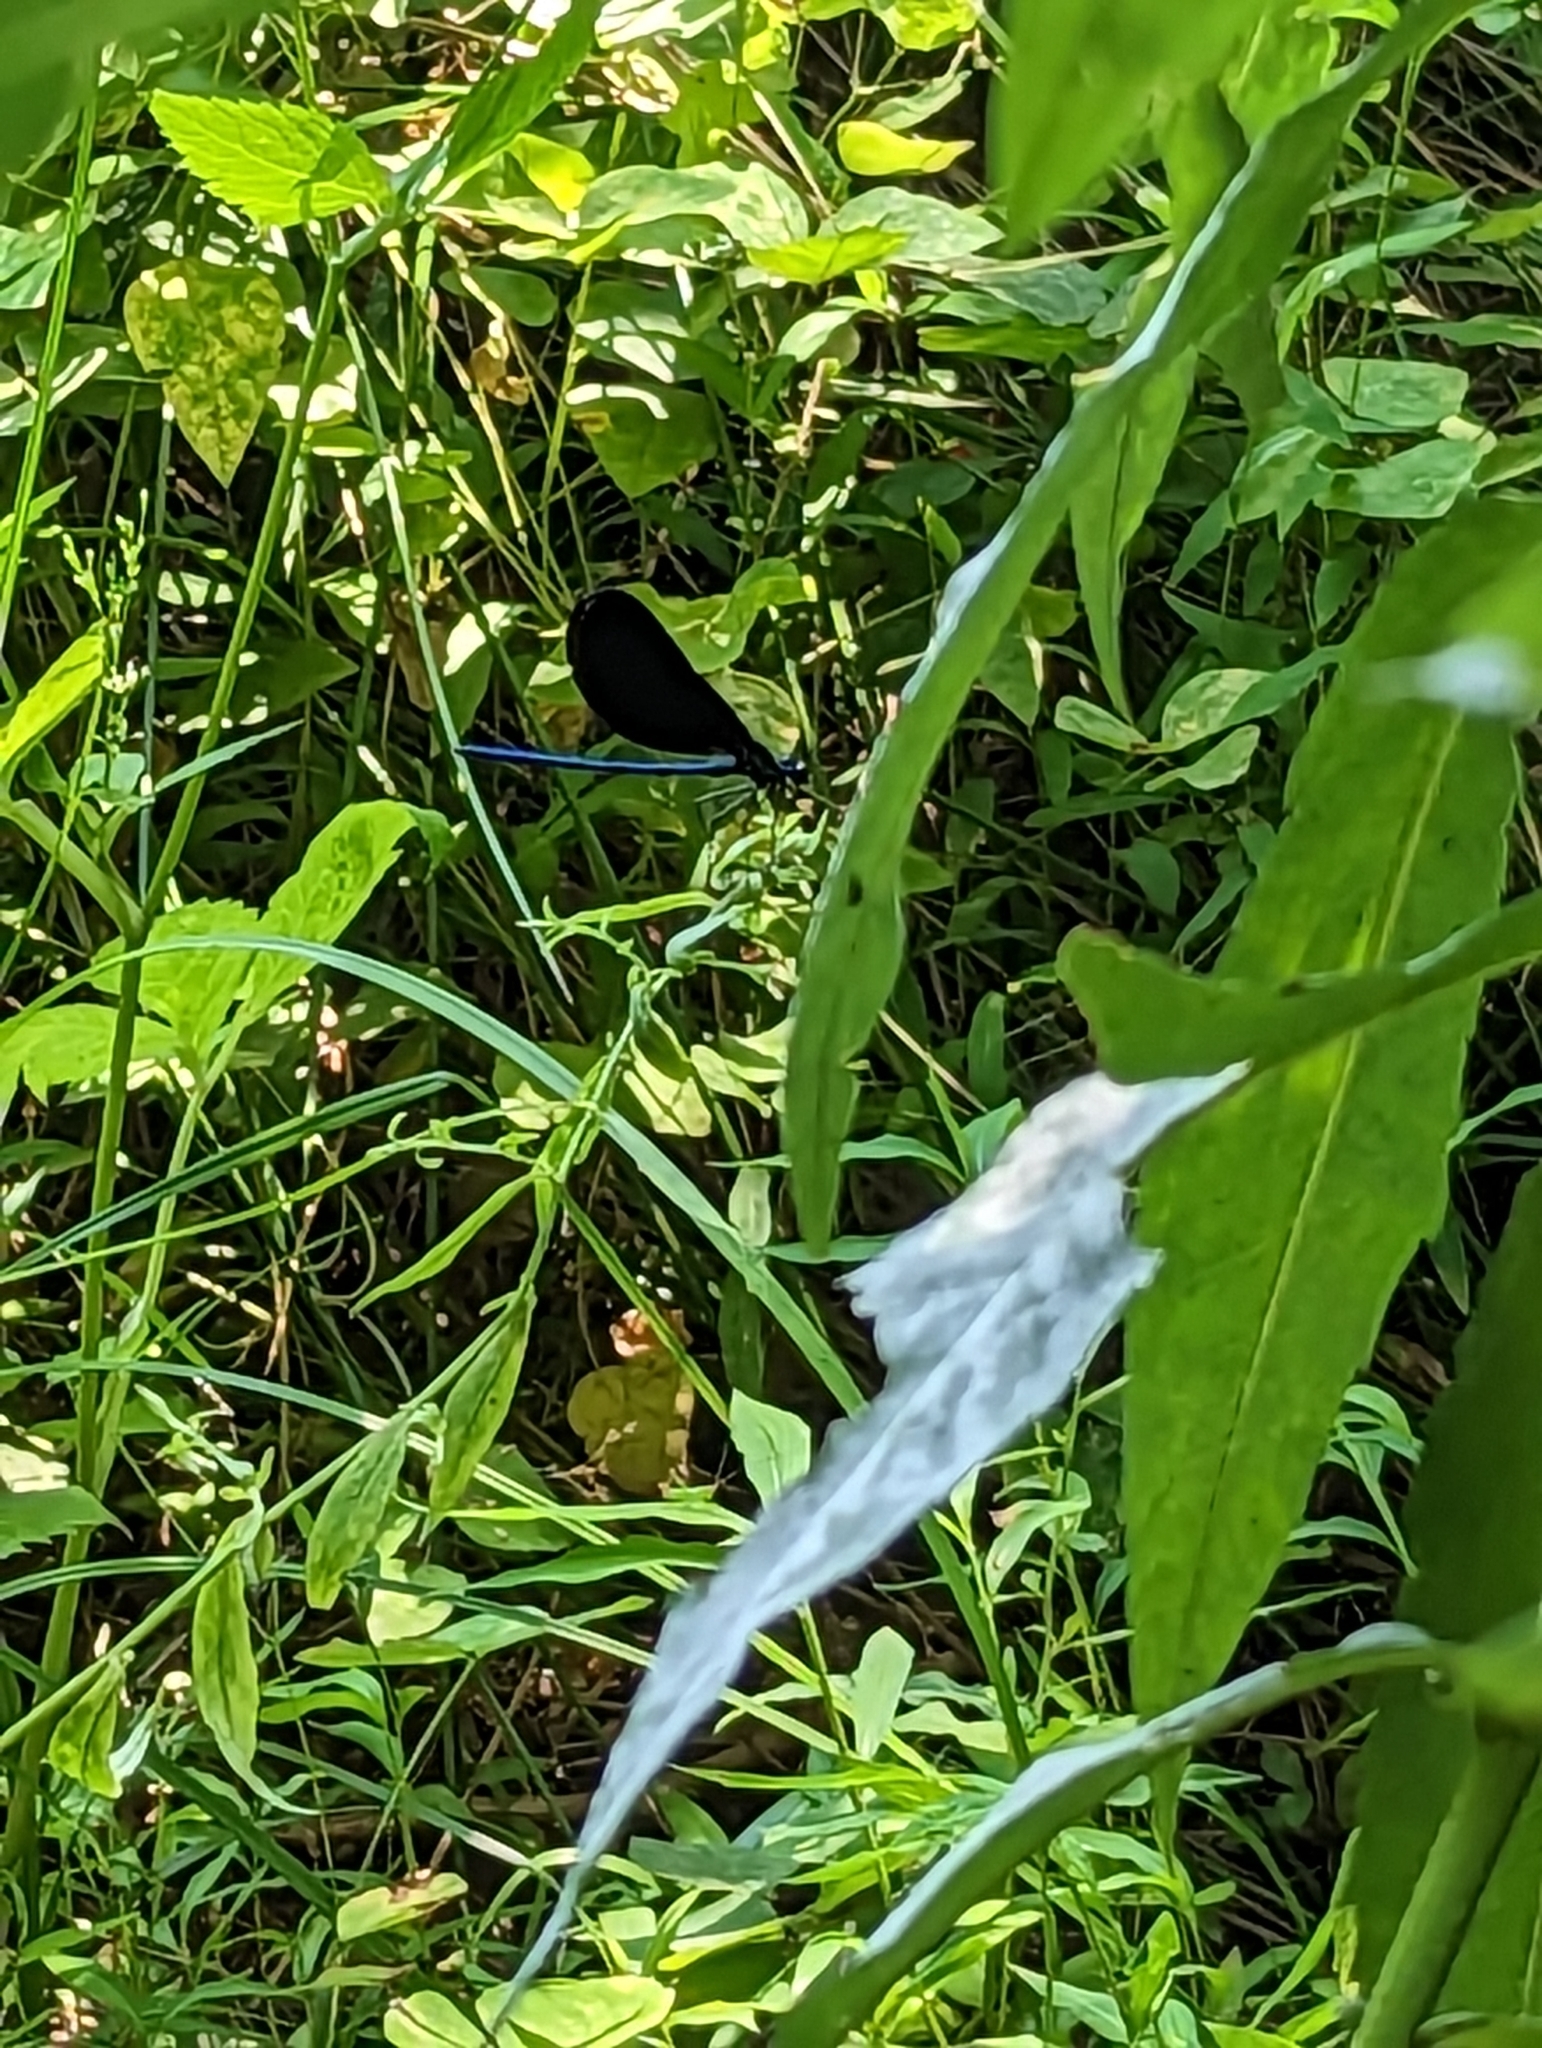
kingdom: Animalia
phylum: Arthropoda
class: Insecta
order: Odonata
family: Calopterygidae
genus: Calopteryx
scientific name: Calopteryx maculata
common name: Ebony jewelwing
